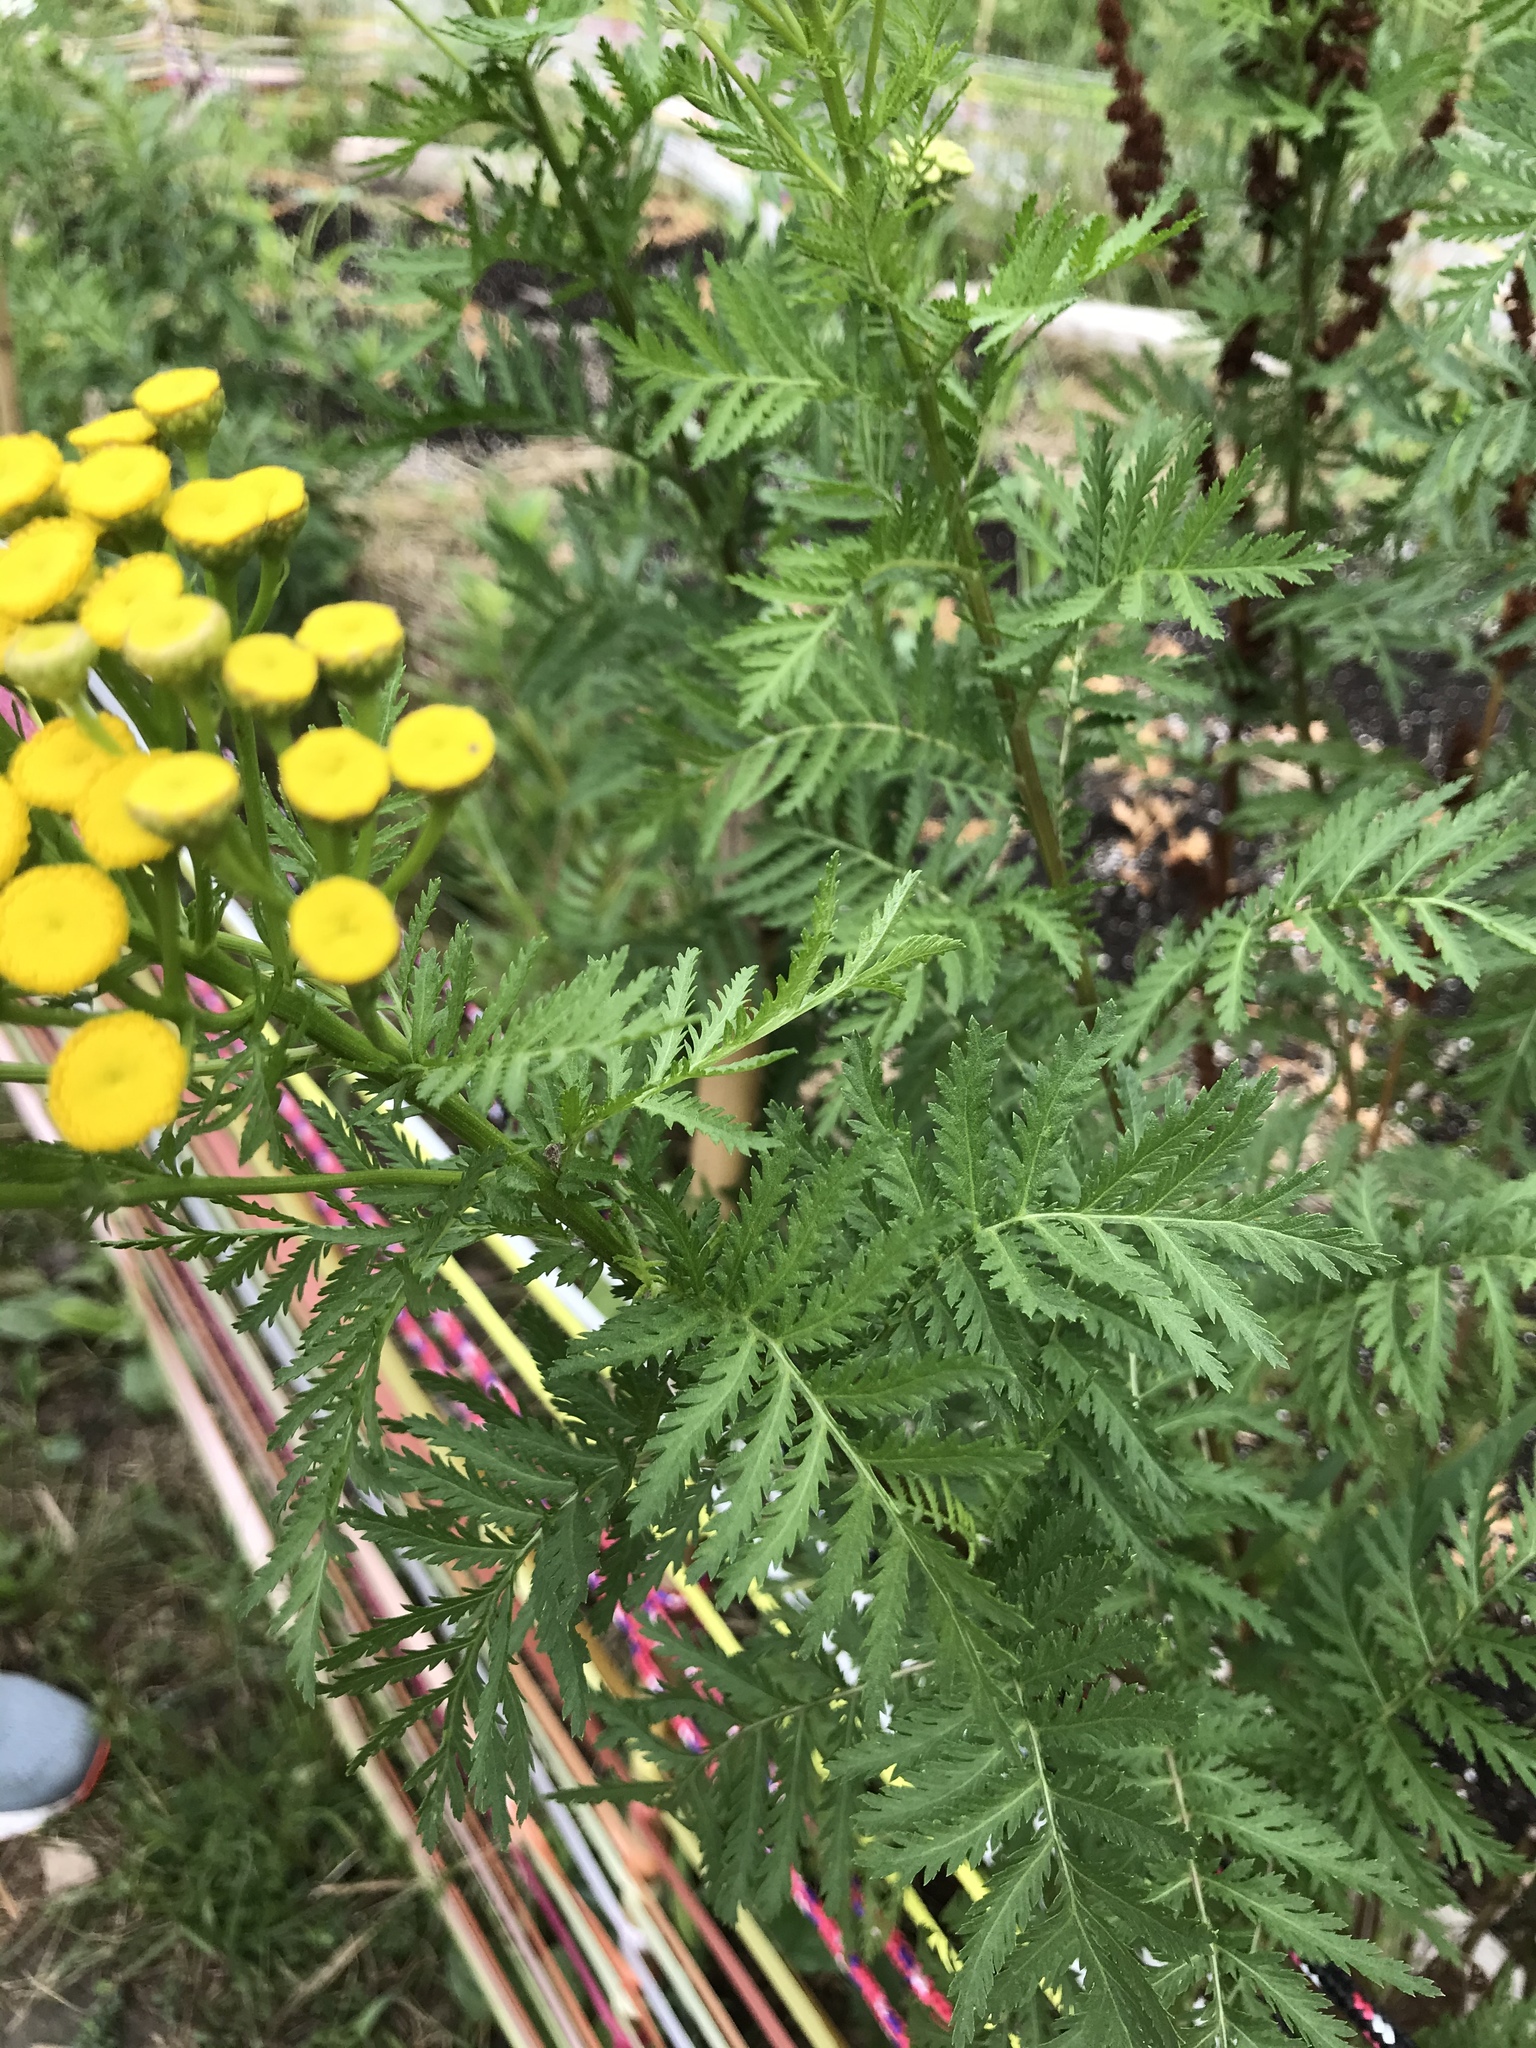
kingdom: Plantae
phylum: Tracheophyta
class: Magnoliopsida
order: Asterales
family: Asteraceae
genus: Tanacetum
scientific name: Tanacetum vulgare
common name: Common tansy
